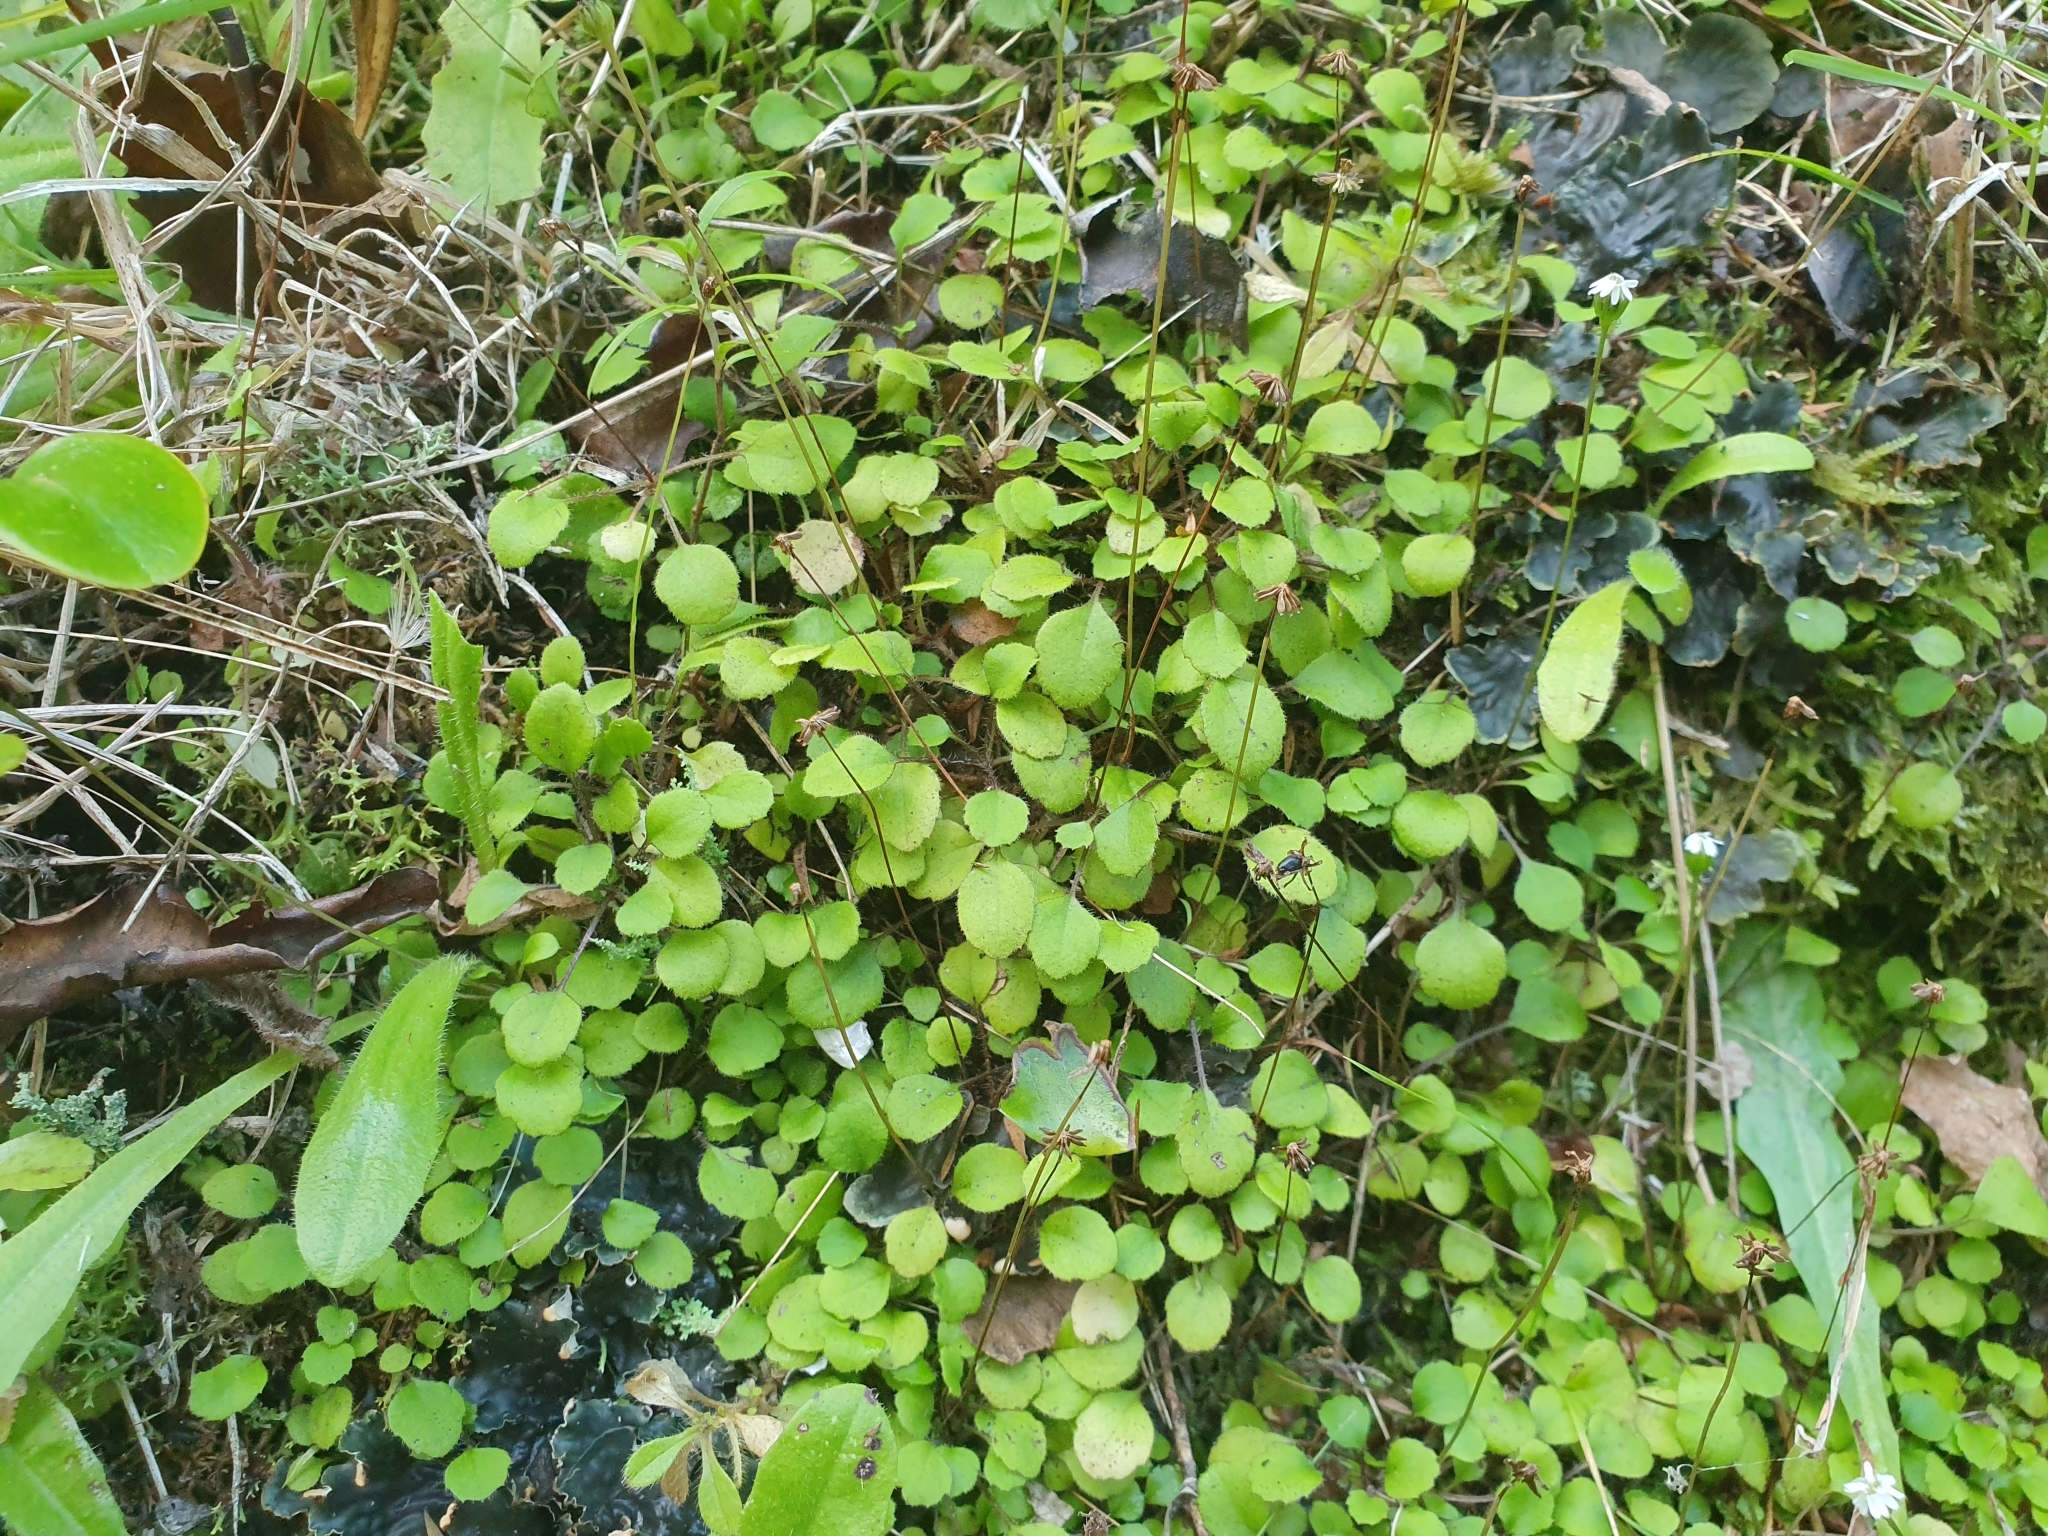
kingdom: Plantae
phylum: Tracheophyta
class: Magnoliopsida
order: Asterales
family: Asteraceae
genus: Lagenophora
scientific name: Lagenophora strangulata
